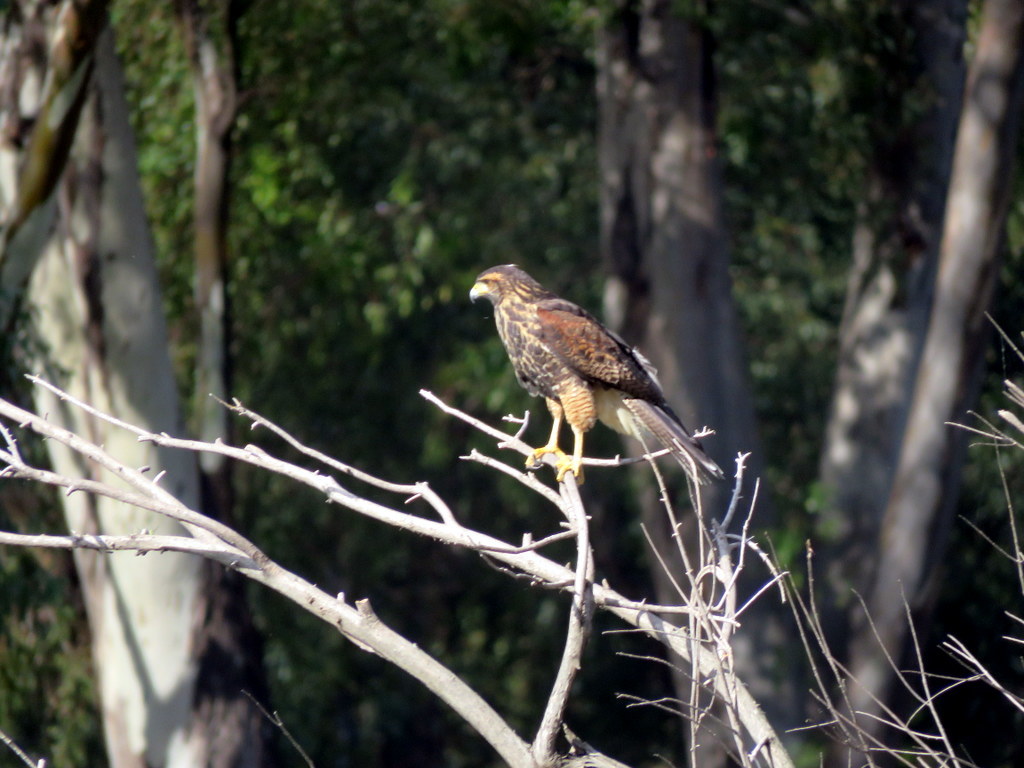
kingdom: Animalia
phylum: Chordata
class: Aves
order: Accipitriformes
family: Accipitridae
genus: Parabuteo
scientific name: Parabuteo unicinctus
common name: Harris's hawk
